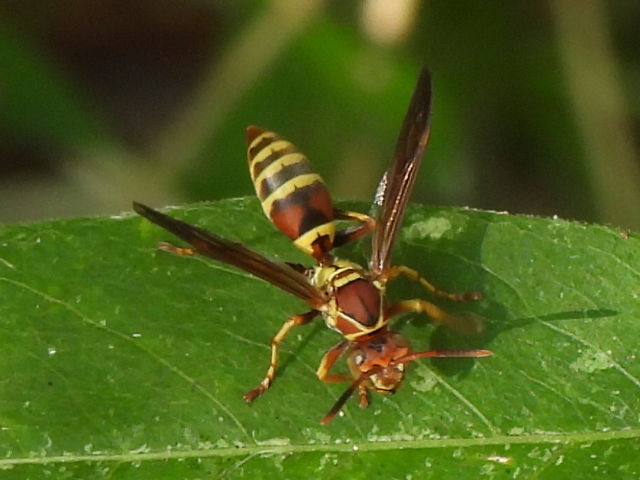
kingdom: Animalia
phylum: Arthropoda
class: Insecta
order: Hymenoptera
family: Eumenidae
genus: Polistes
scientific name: Polistes dorsalis
